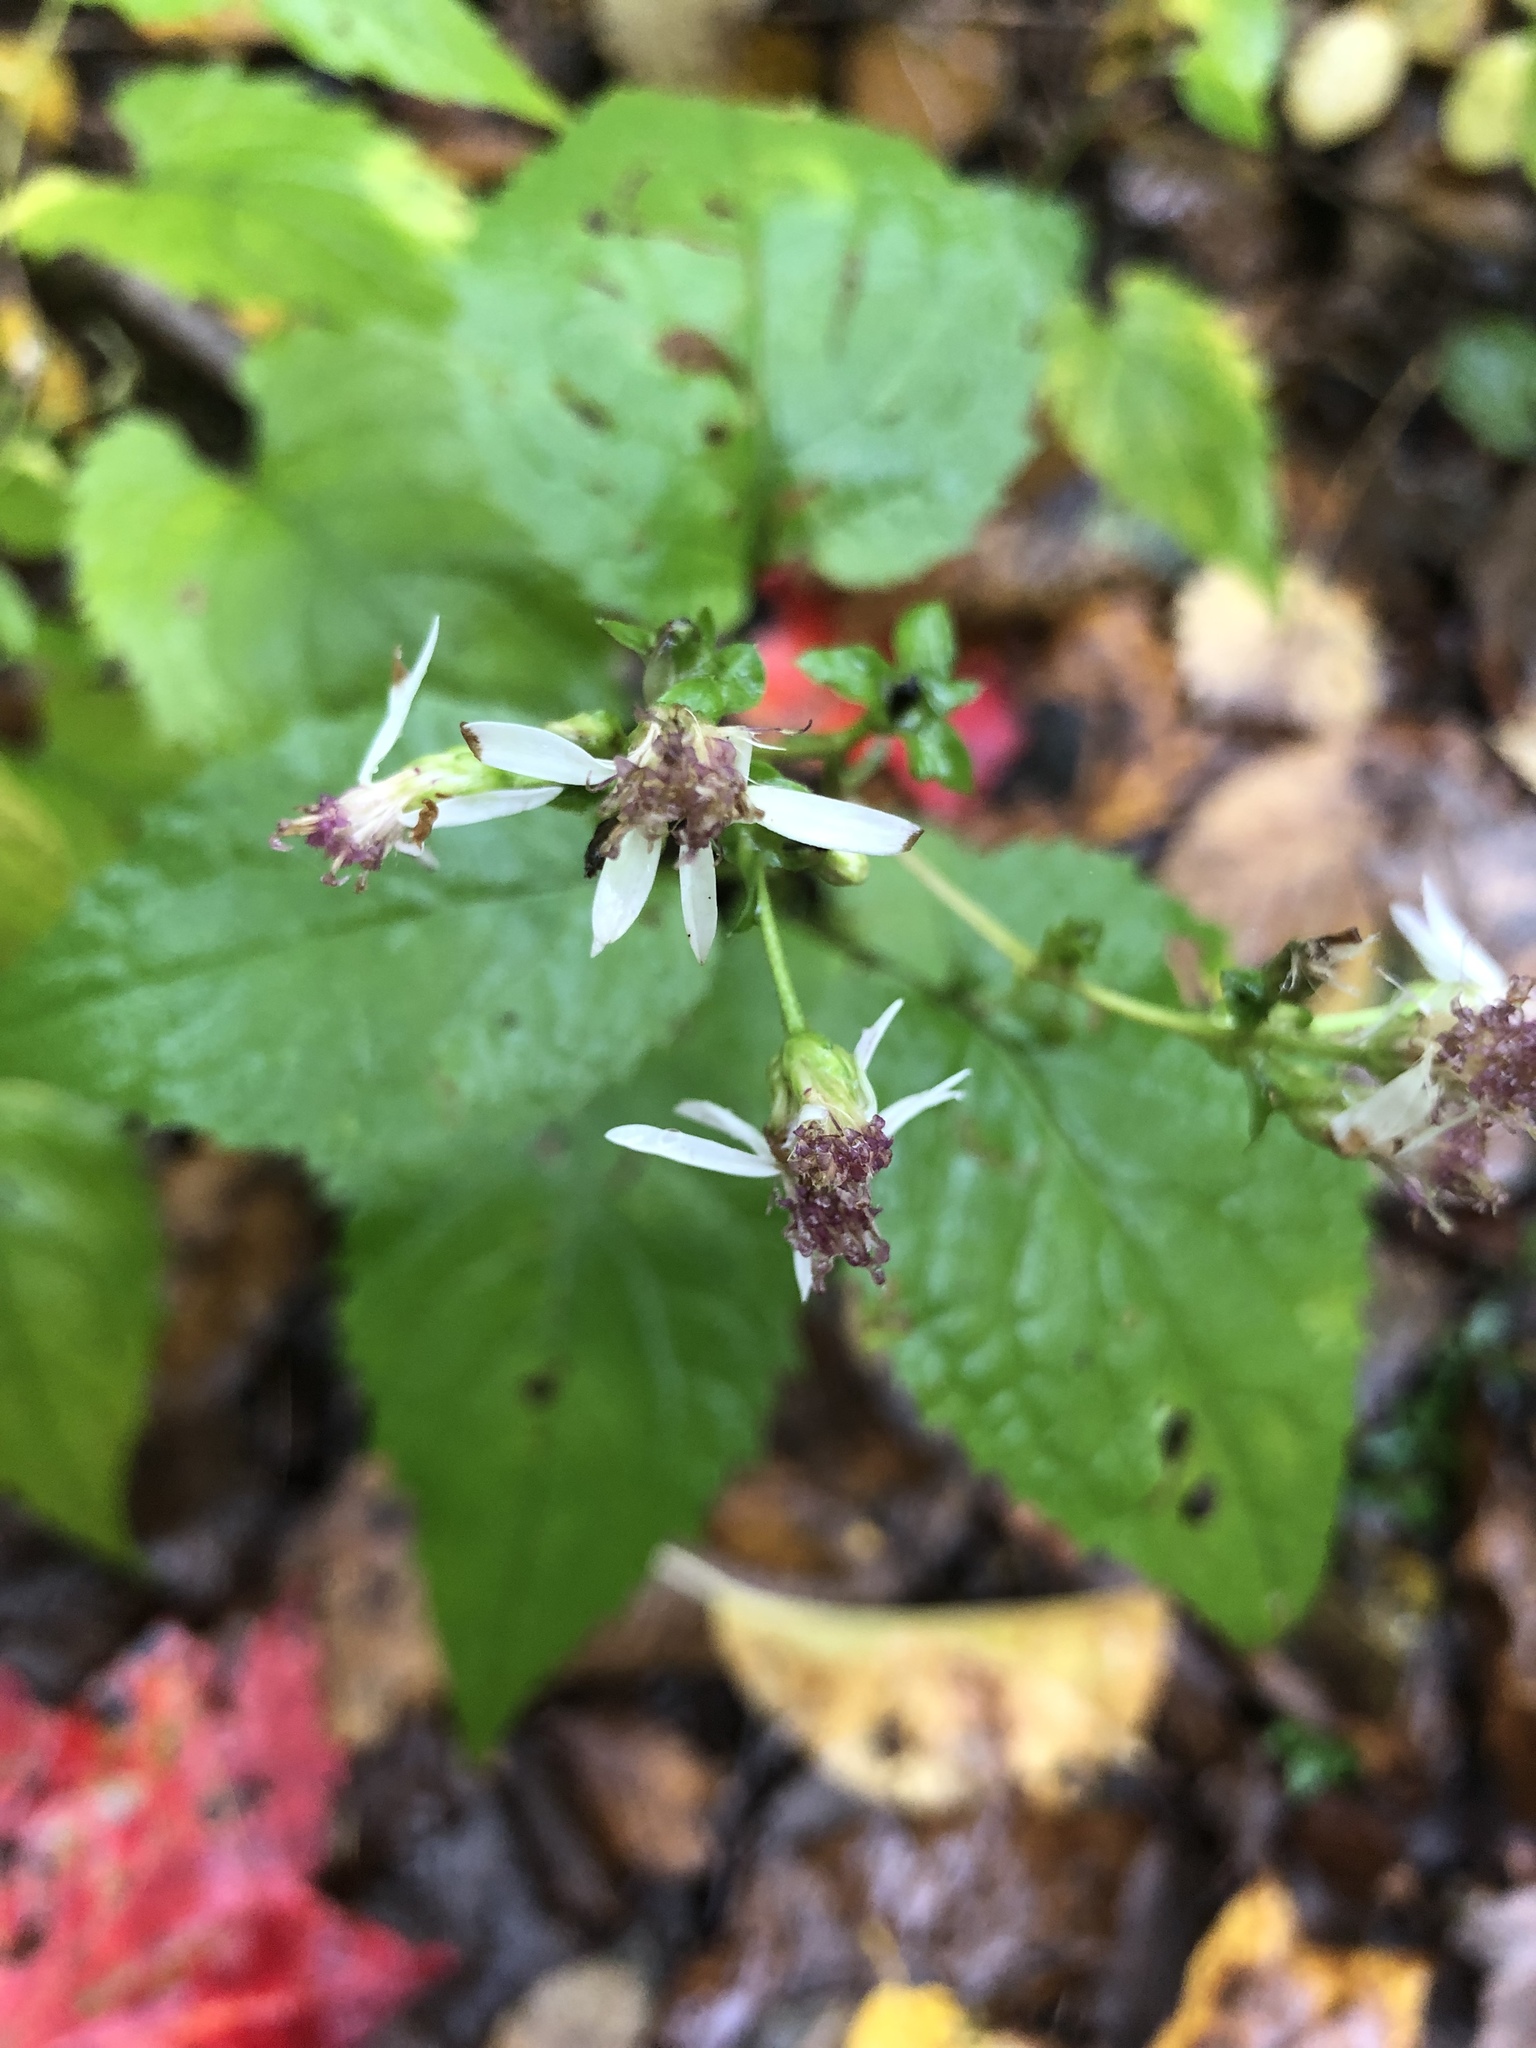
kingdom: Plantae
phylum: Tracheophyta
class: Magnoliopsida
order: Asterales
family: Asteraceae
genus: Eurybia
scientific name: Eurybia divaricata
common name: White wood aster
